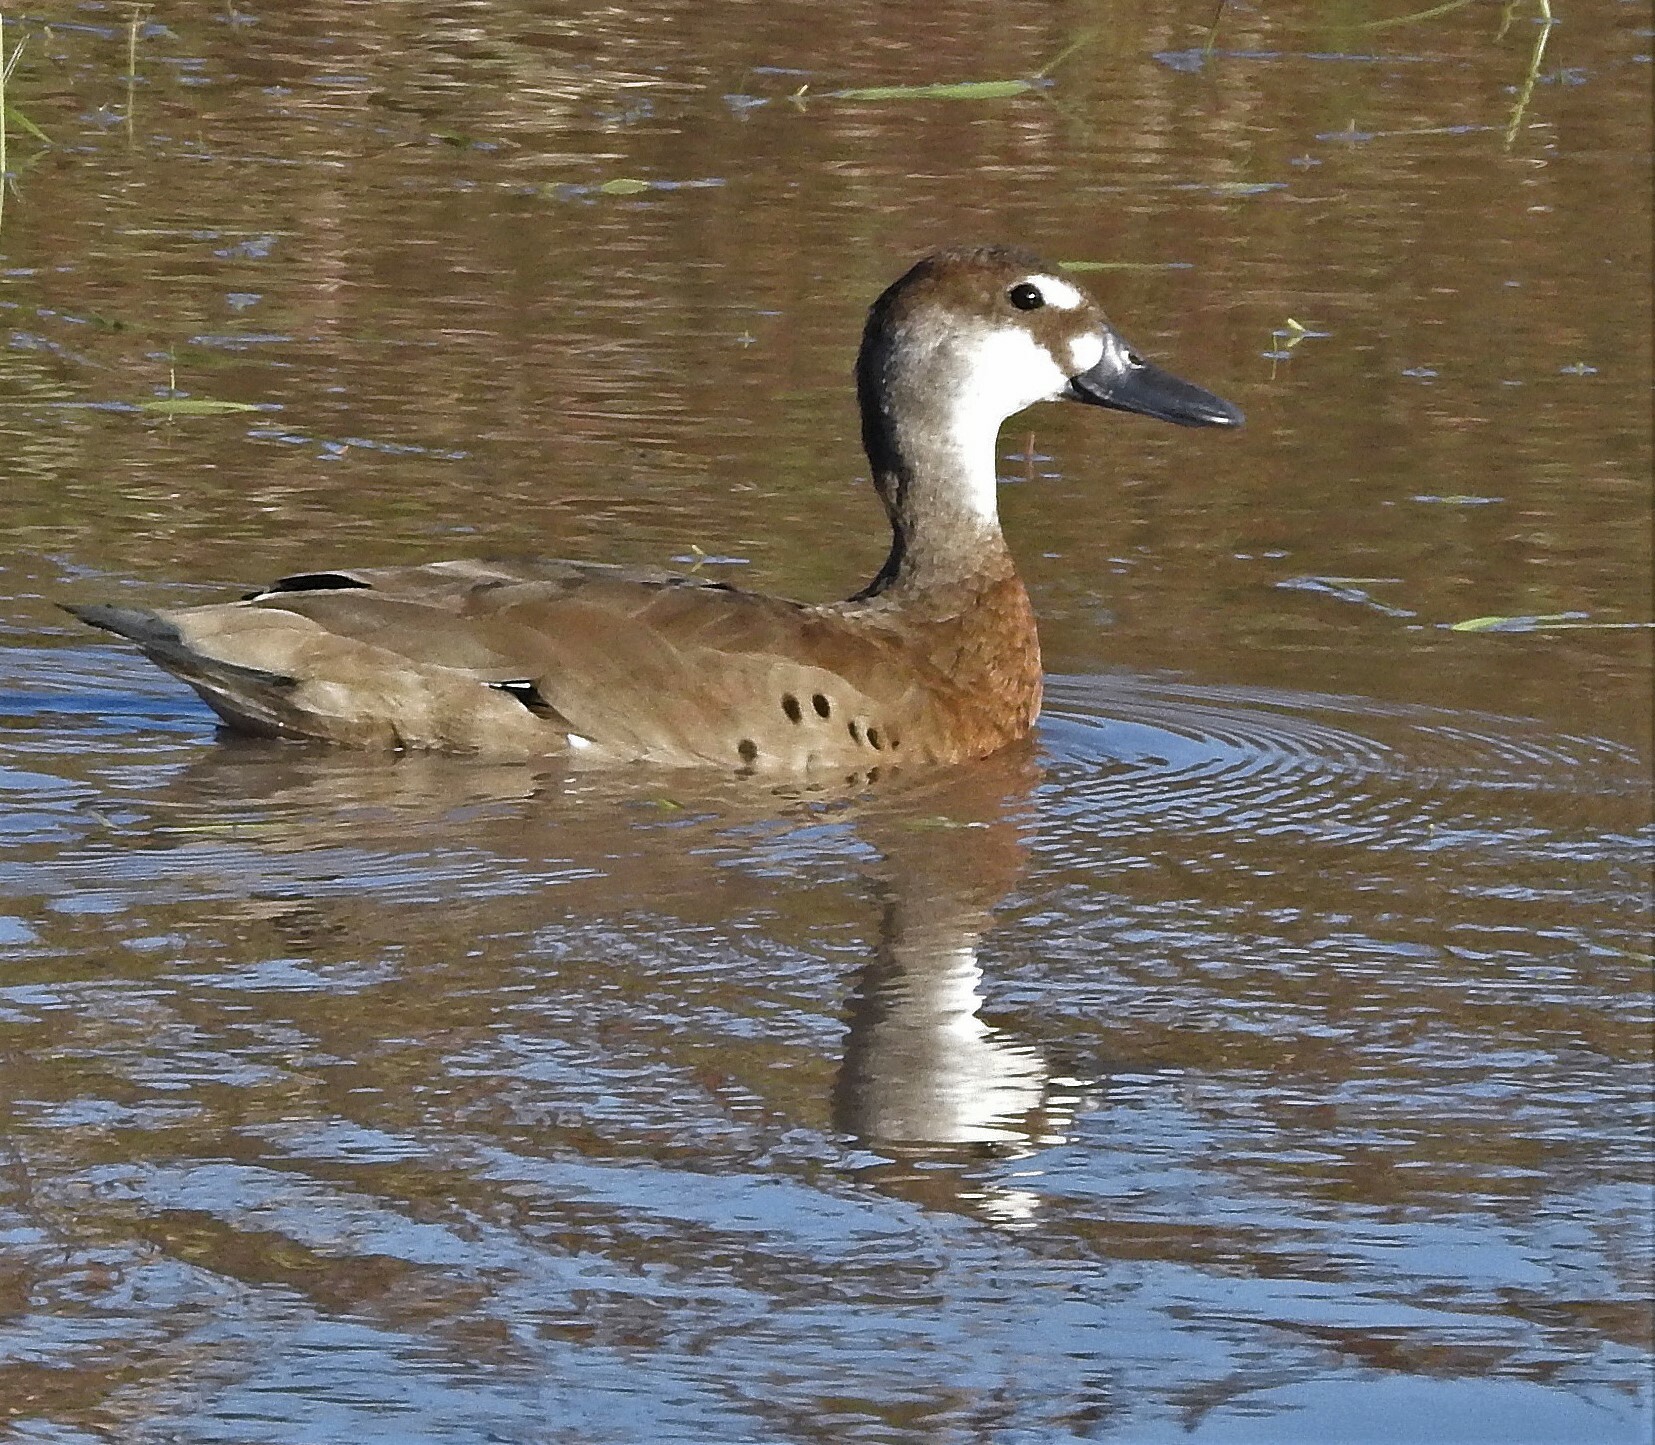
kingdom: Animalia
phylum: Chordata
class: Aves
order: Anseriformes
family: Anatidae
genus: Amazonetta
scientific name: Amazonetta brasiliensis
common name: Brazilian teal
